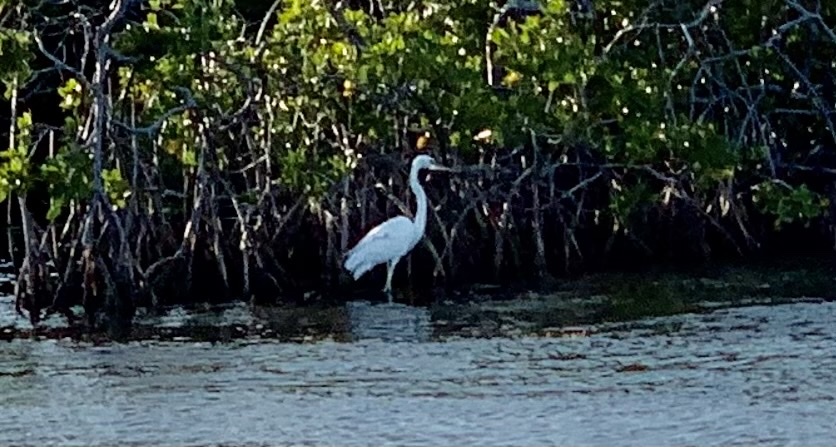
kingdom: Animalia
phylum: Chordata
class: Aves
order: Pelecaniformes
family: Ardeidae
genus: Ardea
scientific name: Ardea herodias
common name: Great blue heron
